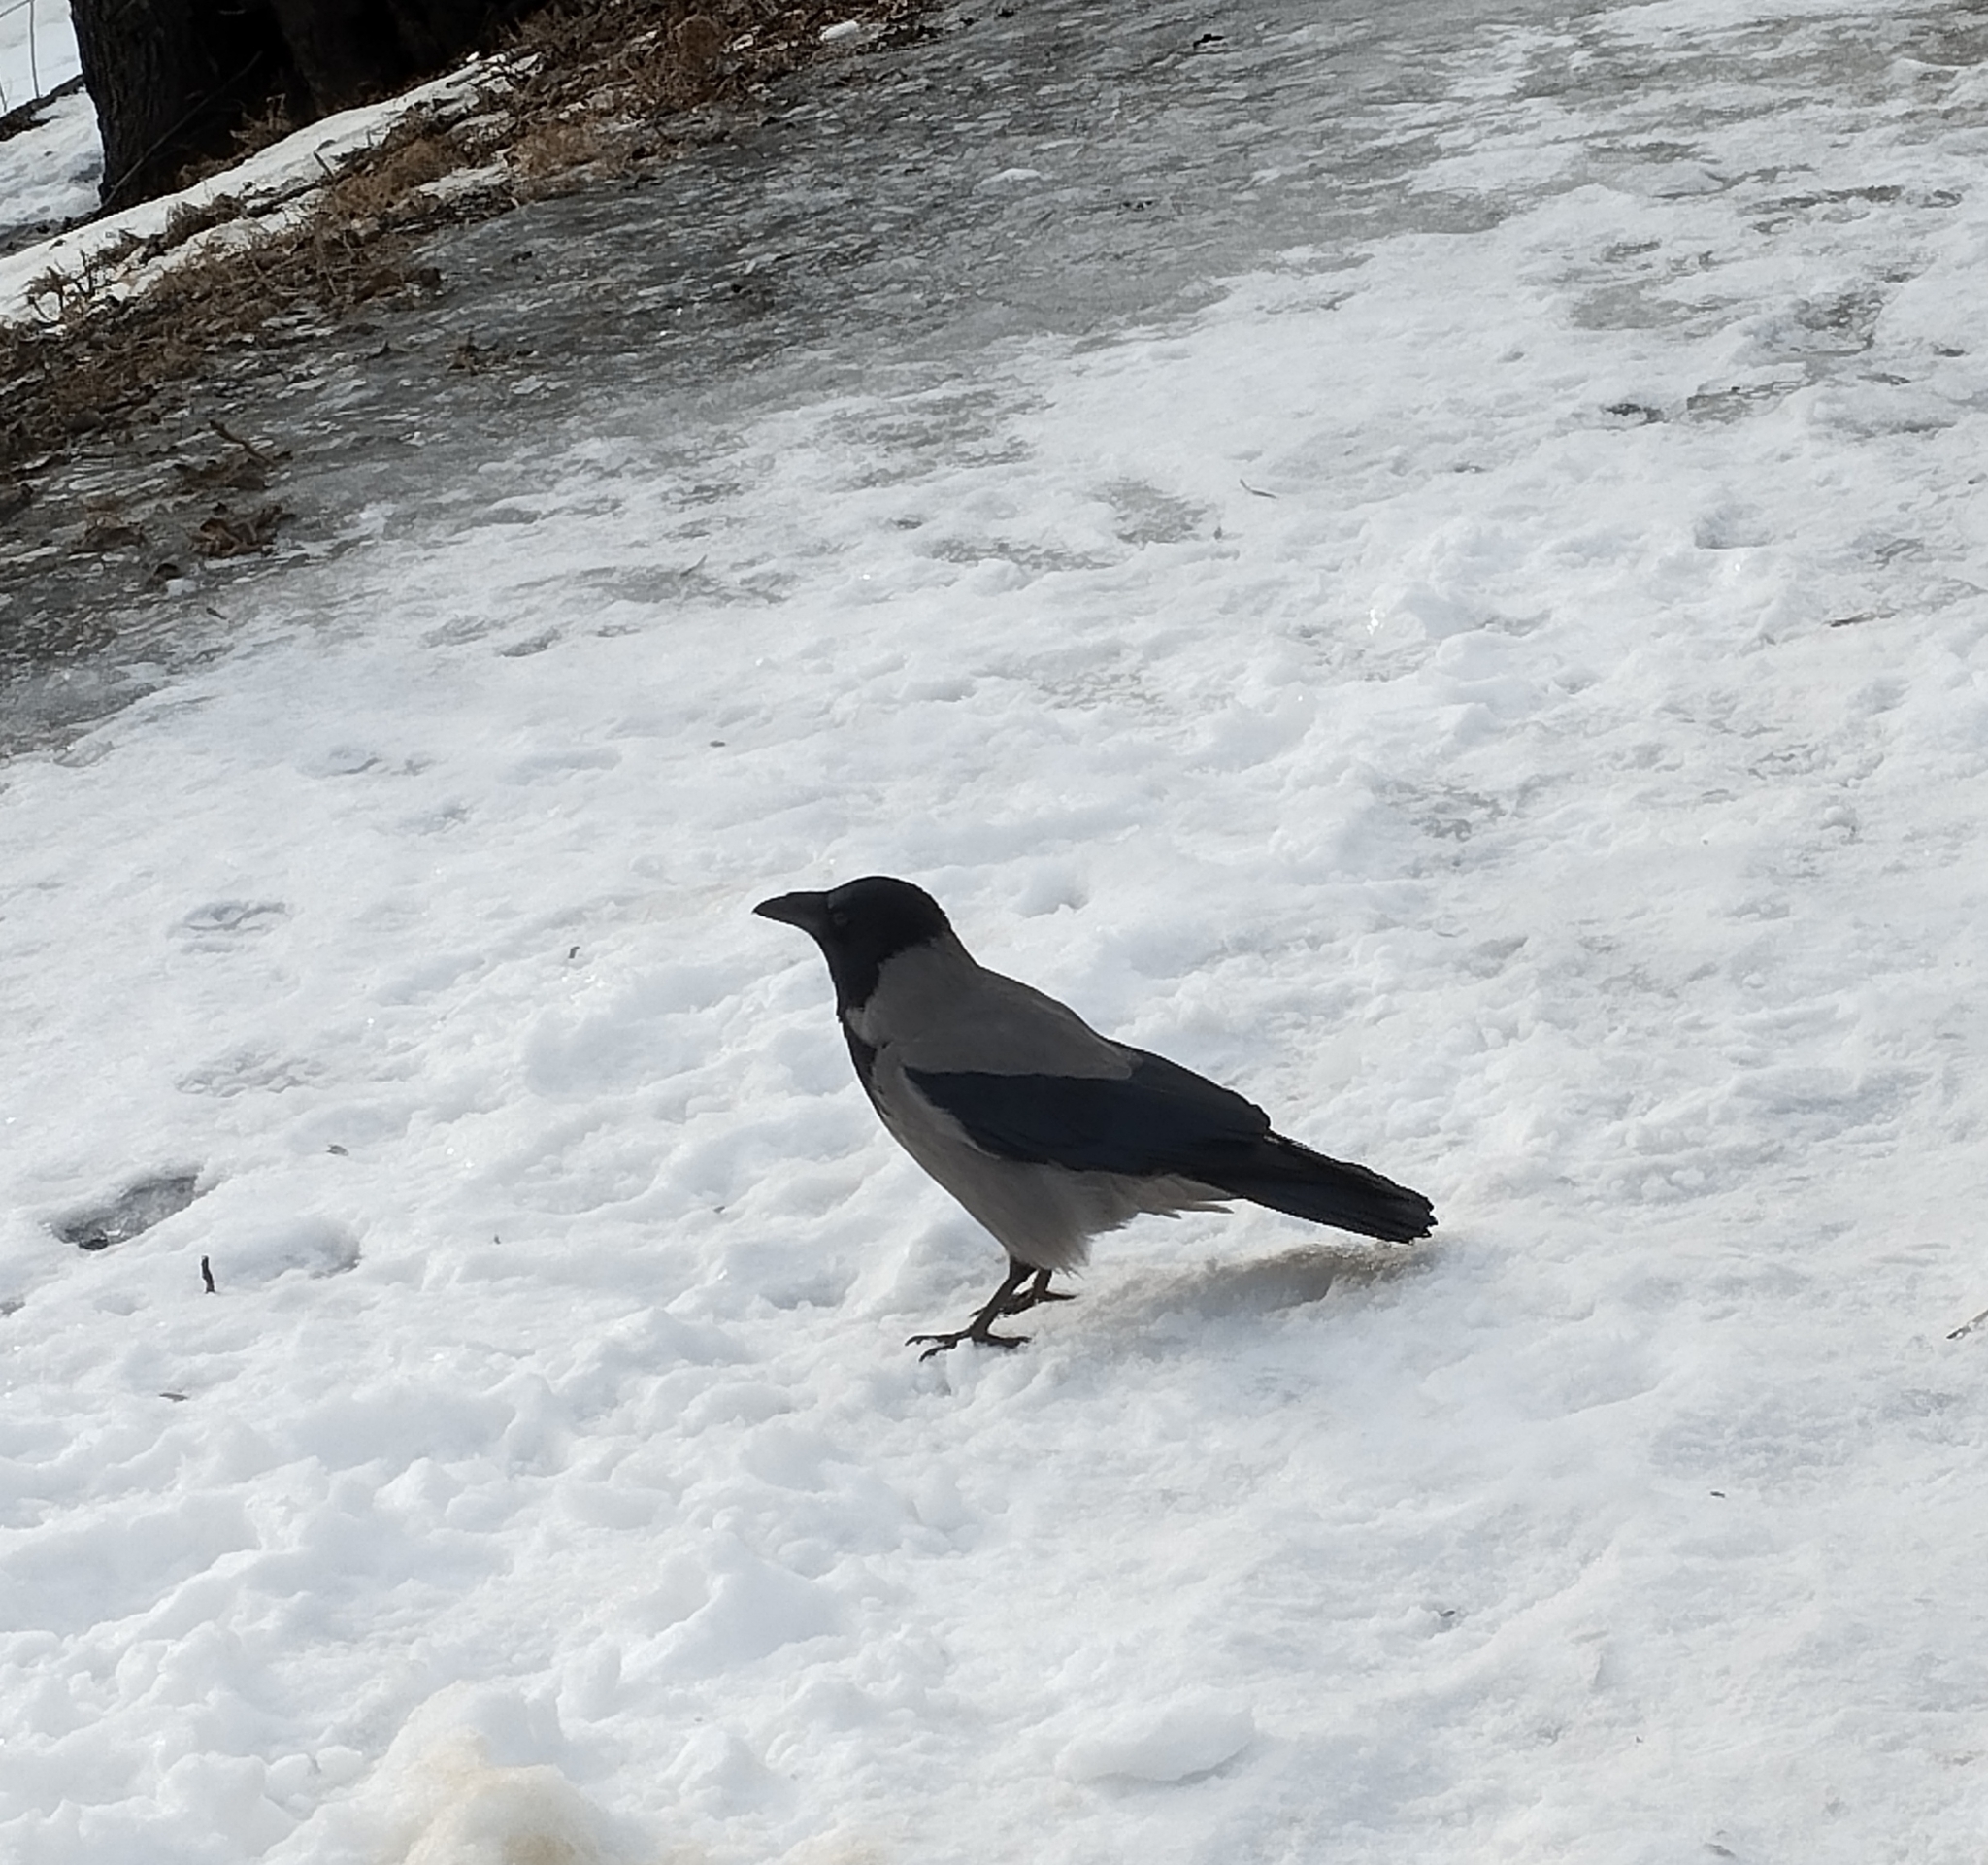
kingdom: Animalia
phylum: Chordata
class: Aves
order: Passeriformes
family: Corvidae
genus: Corvus
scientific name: Corvus cornix
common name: Hooded crow
